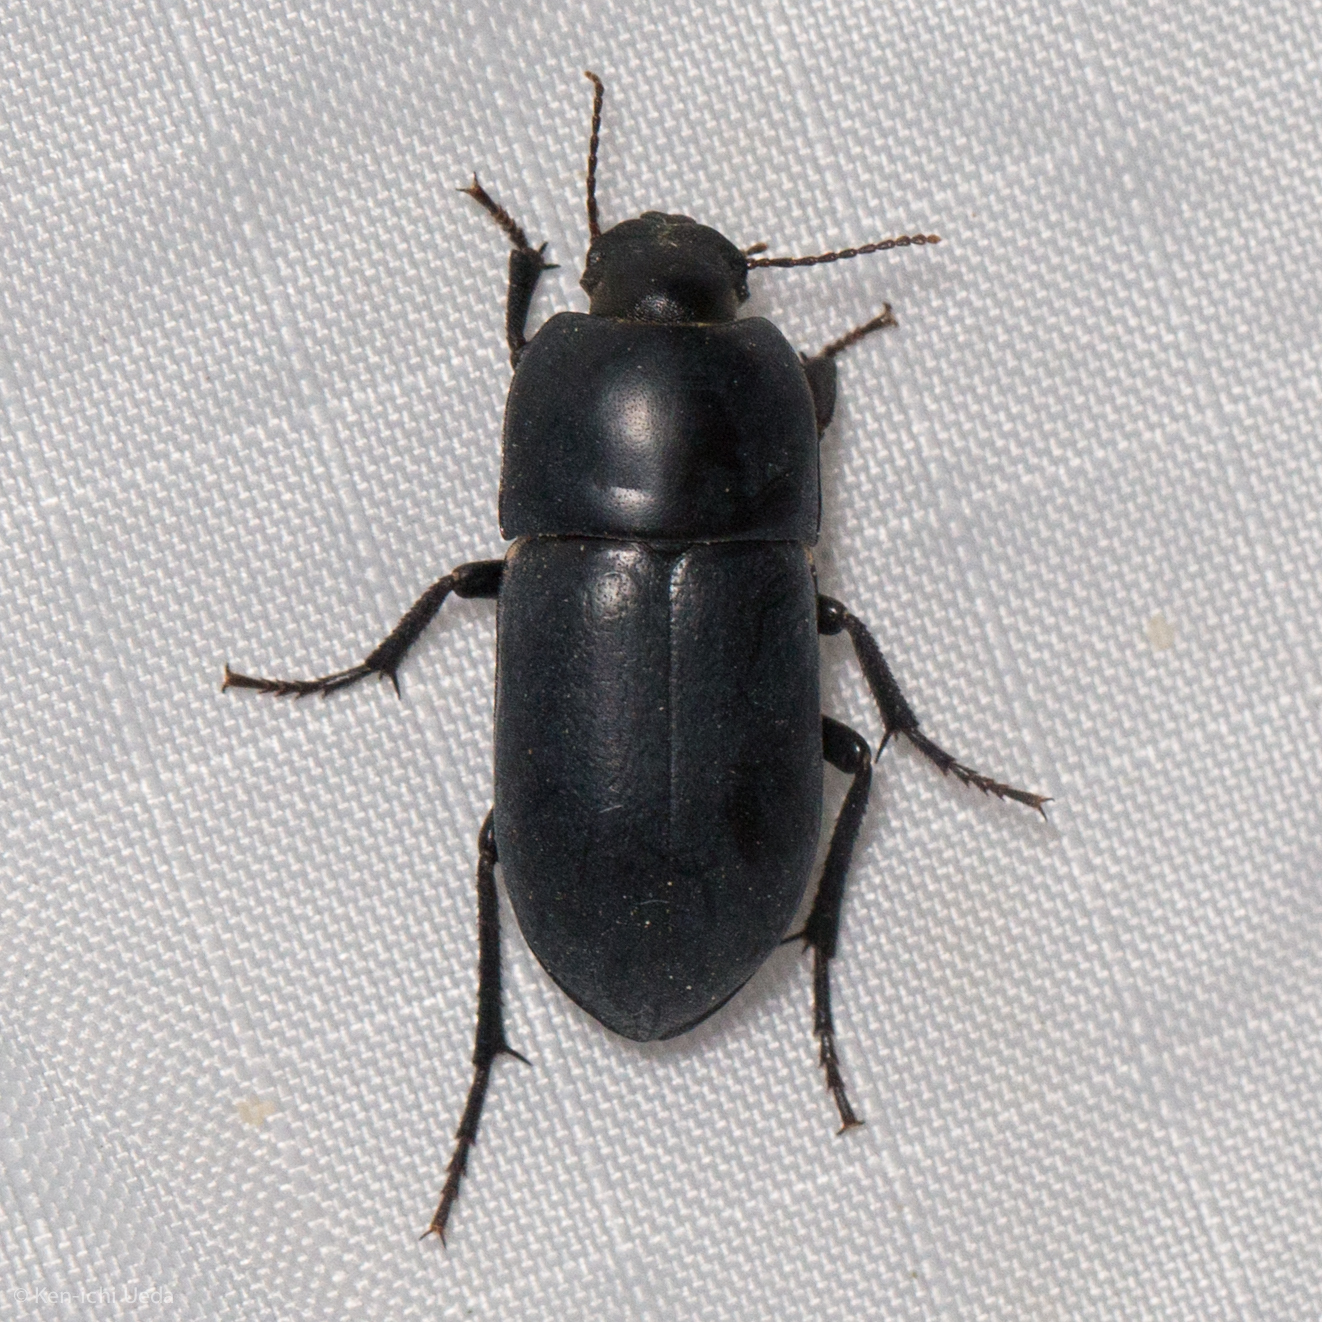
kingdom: Animalia
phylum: Arthropoda
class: Insecta
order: Coleoptera
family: Tenebrionidae
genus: Coniontis
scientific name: Coniontis
